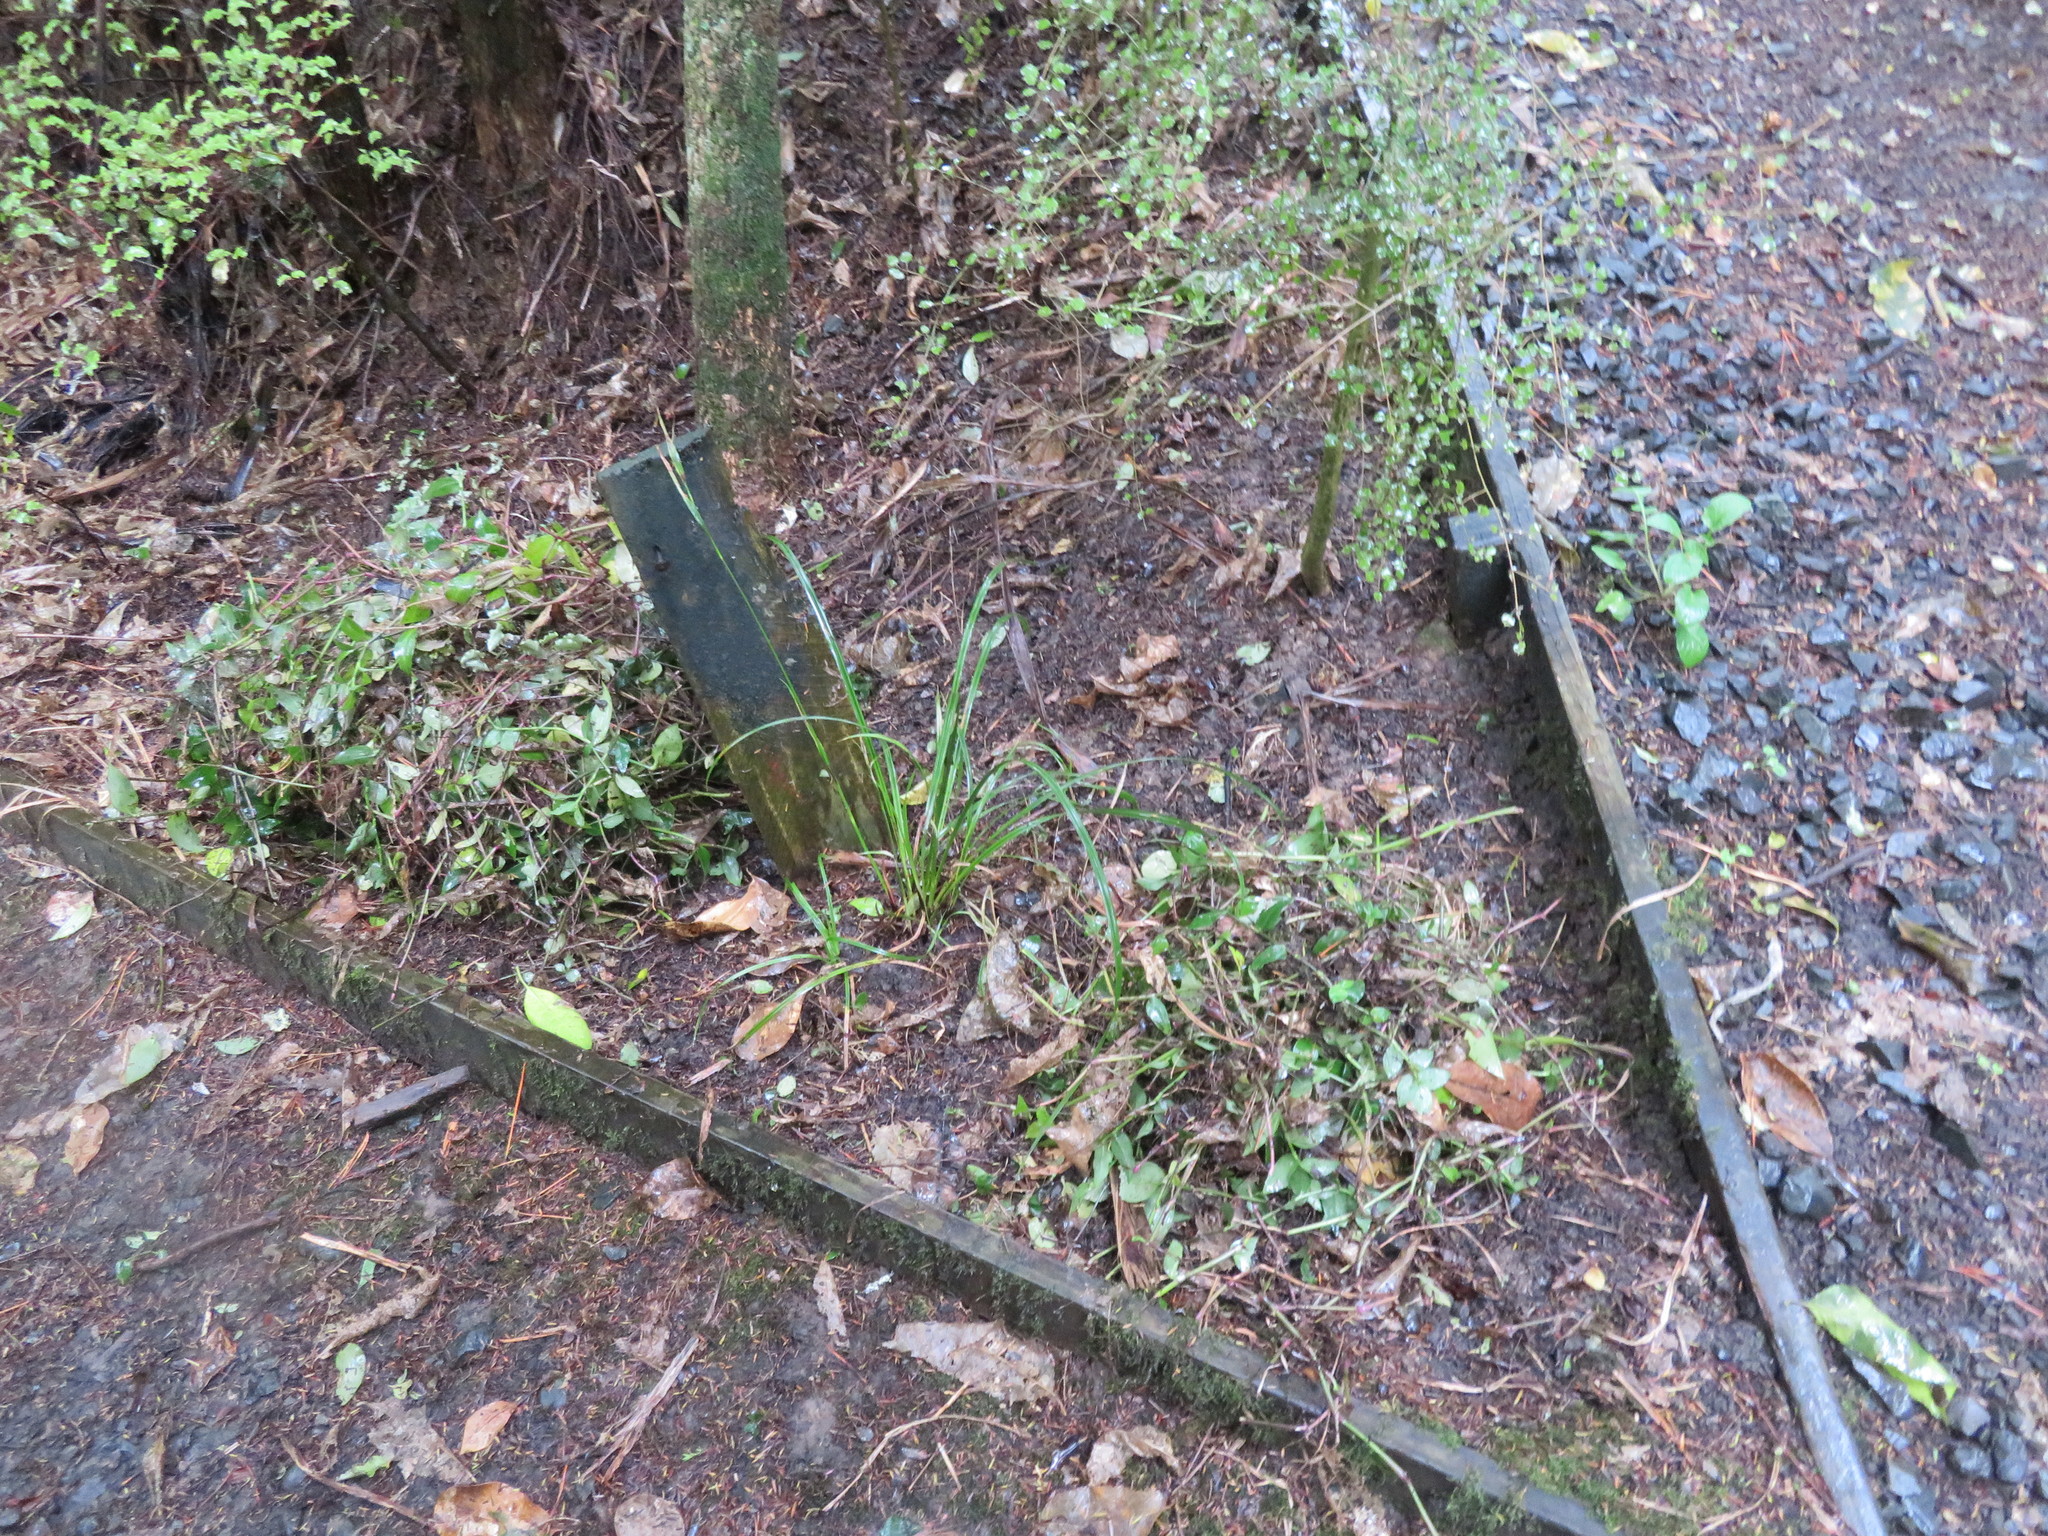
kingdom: Plantae
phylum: Tracheophyta
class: Liliopsida
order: Commelinales
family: Commelinaceae
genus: Tradescantia
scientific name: Tradescantia fluminensis
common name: Wandering-jew
